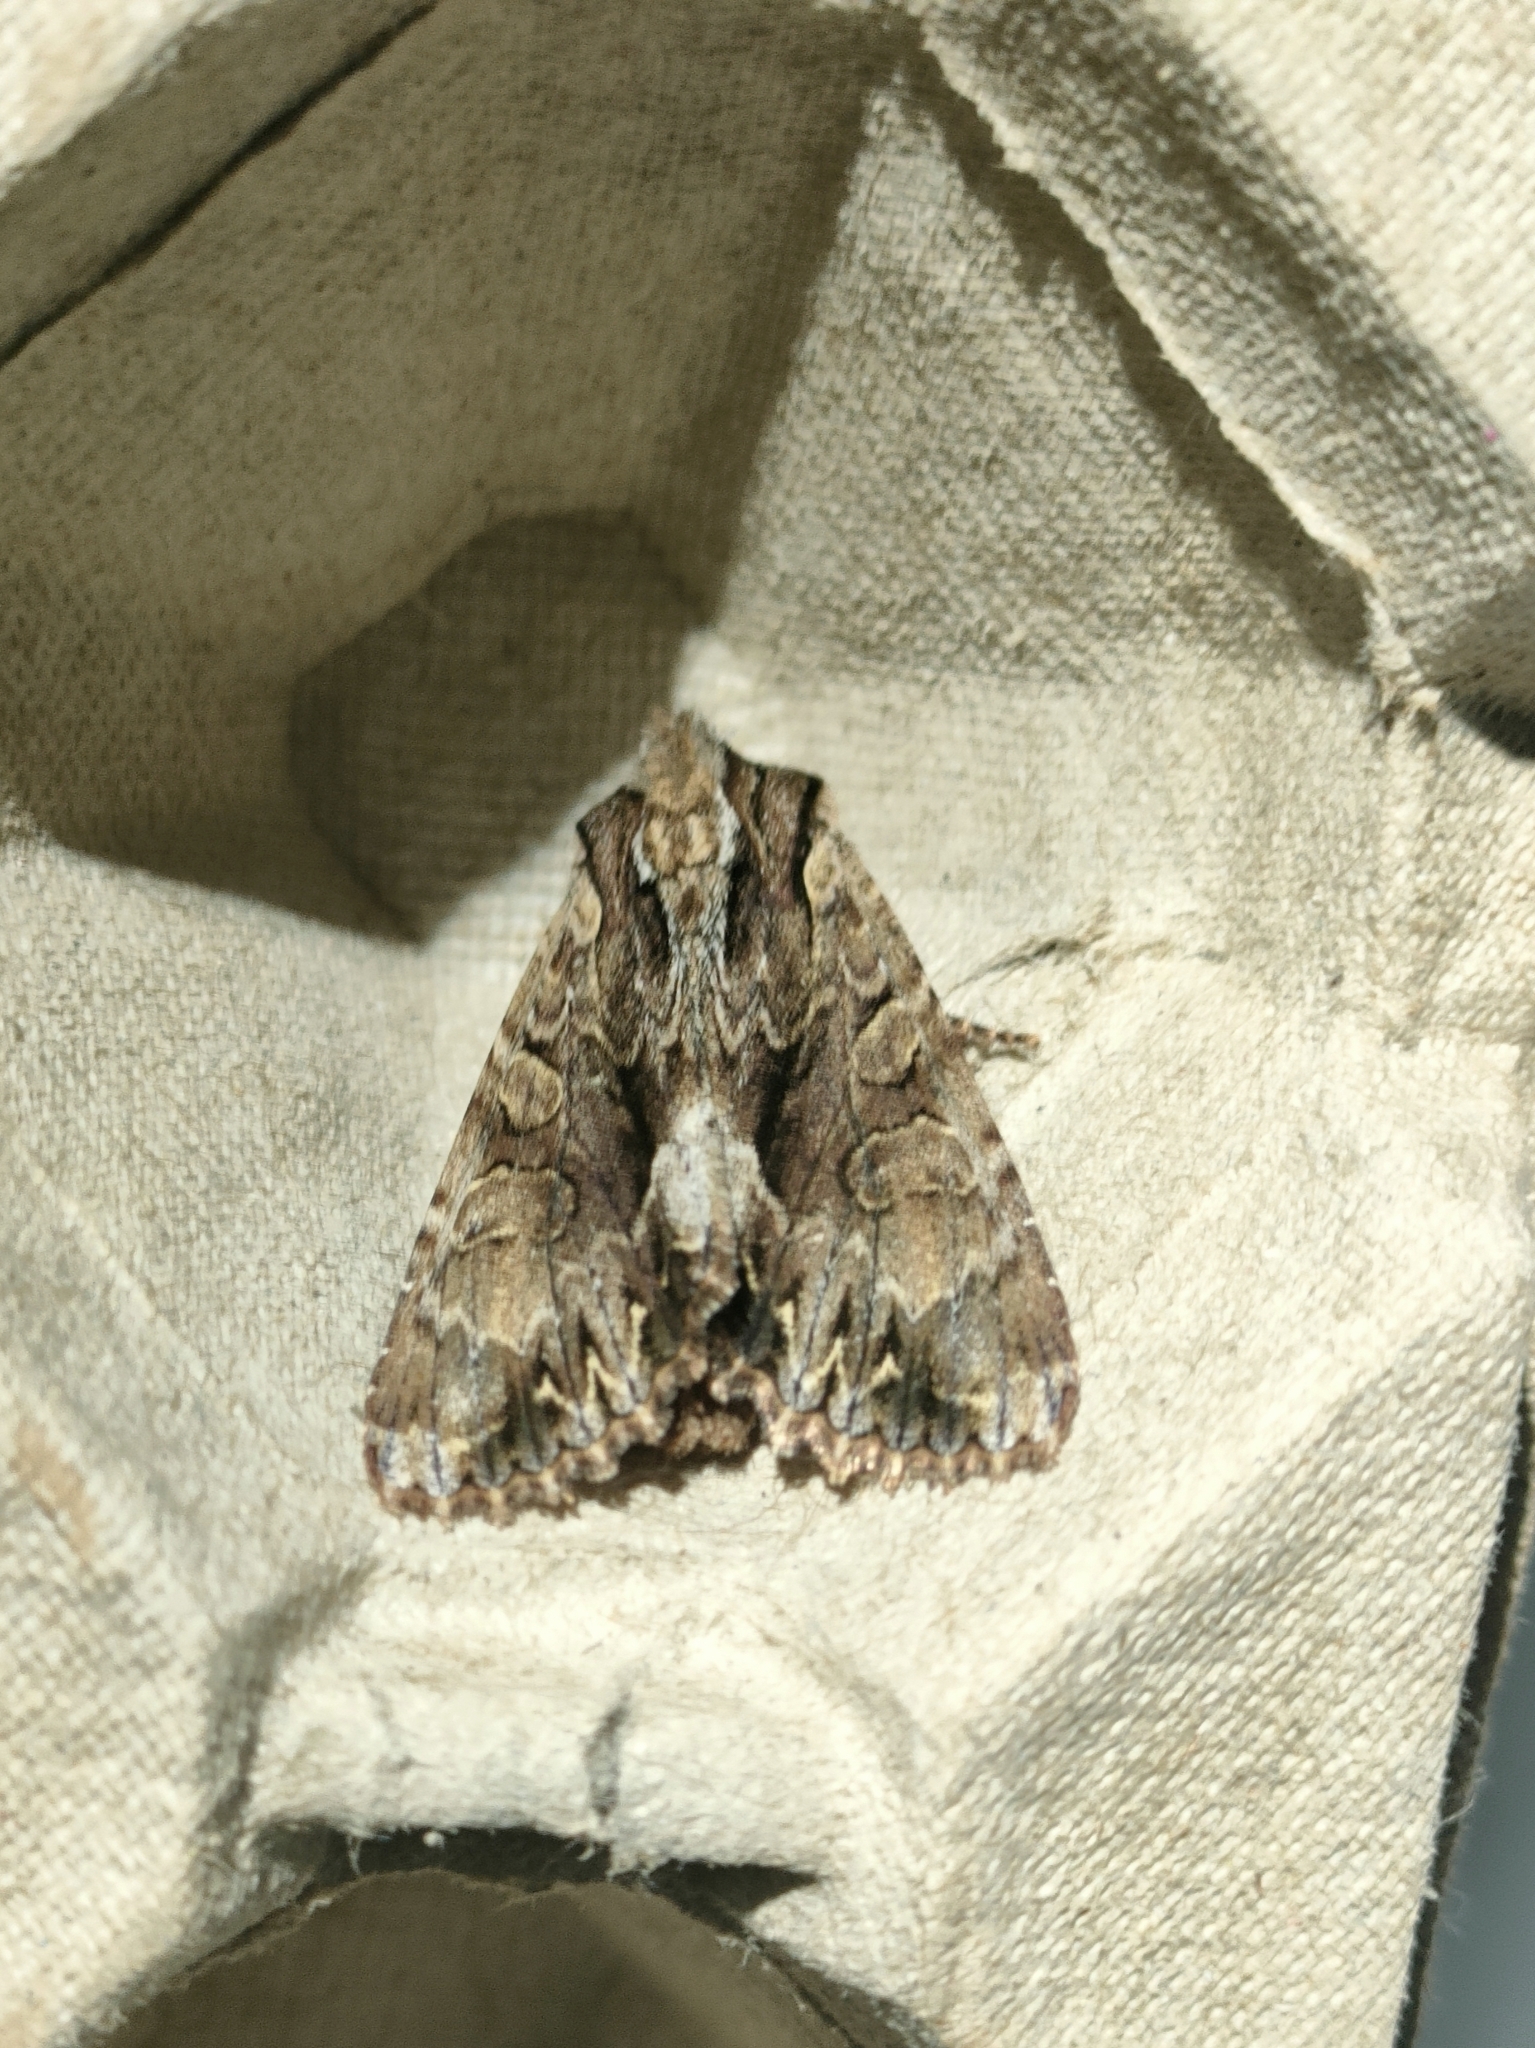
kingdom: Animalia
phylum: Arthropoda
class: Insecta
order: Lepidoptera
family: Noctuidae
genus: Apamea
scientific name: Apamea monoglypha
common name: Dark arches
